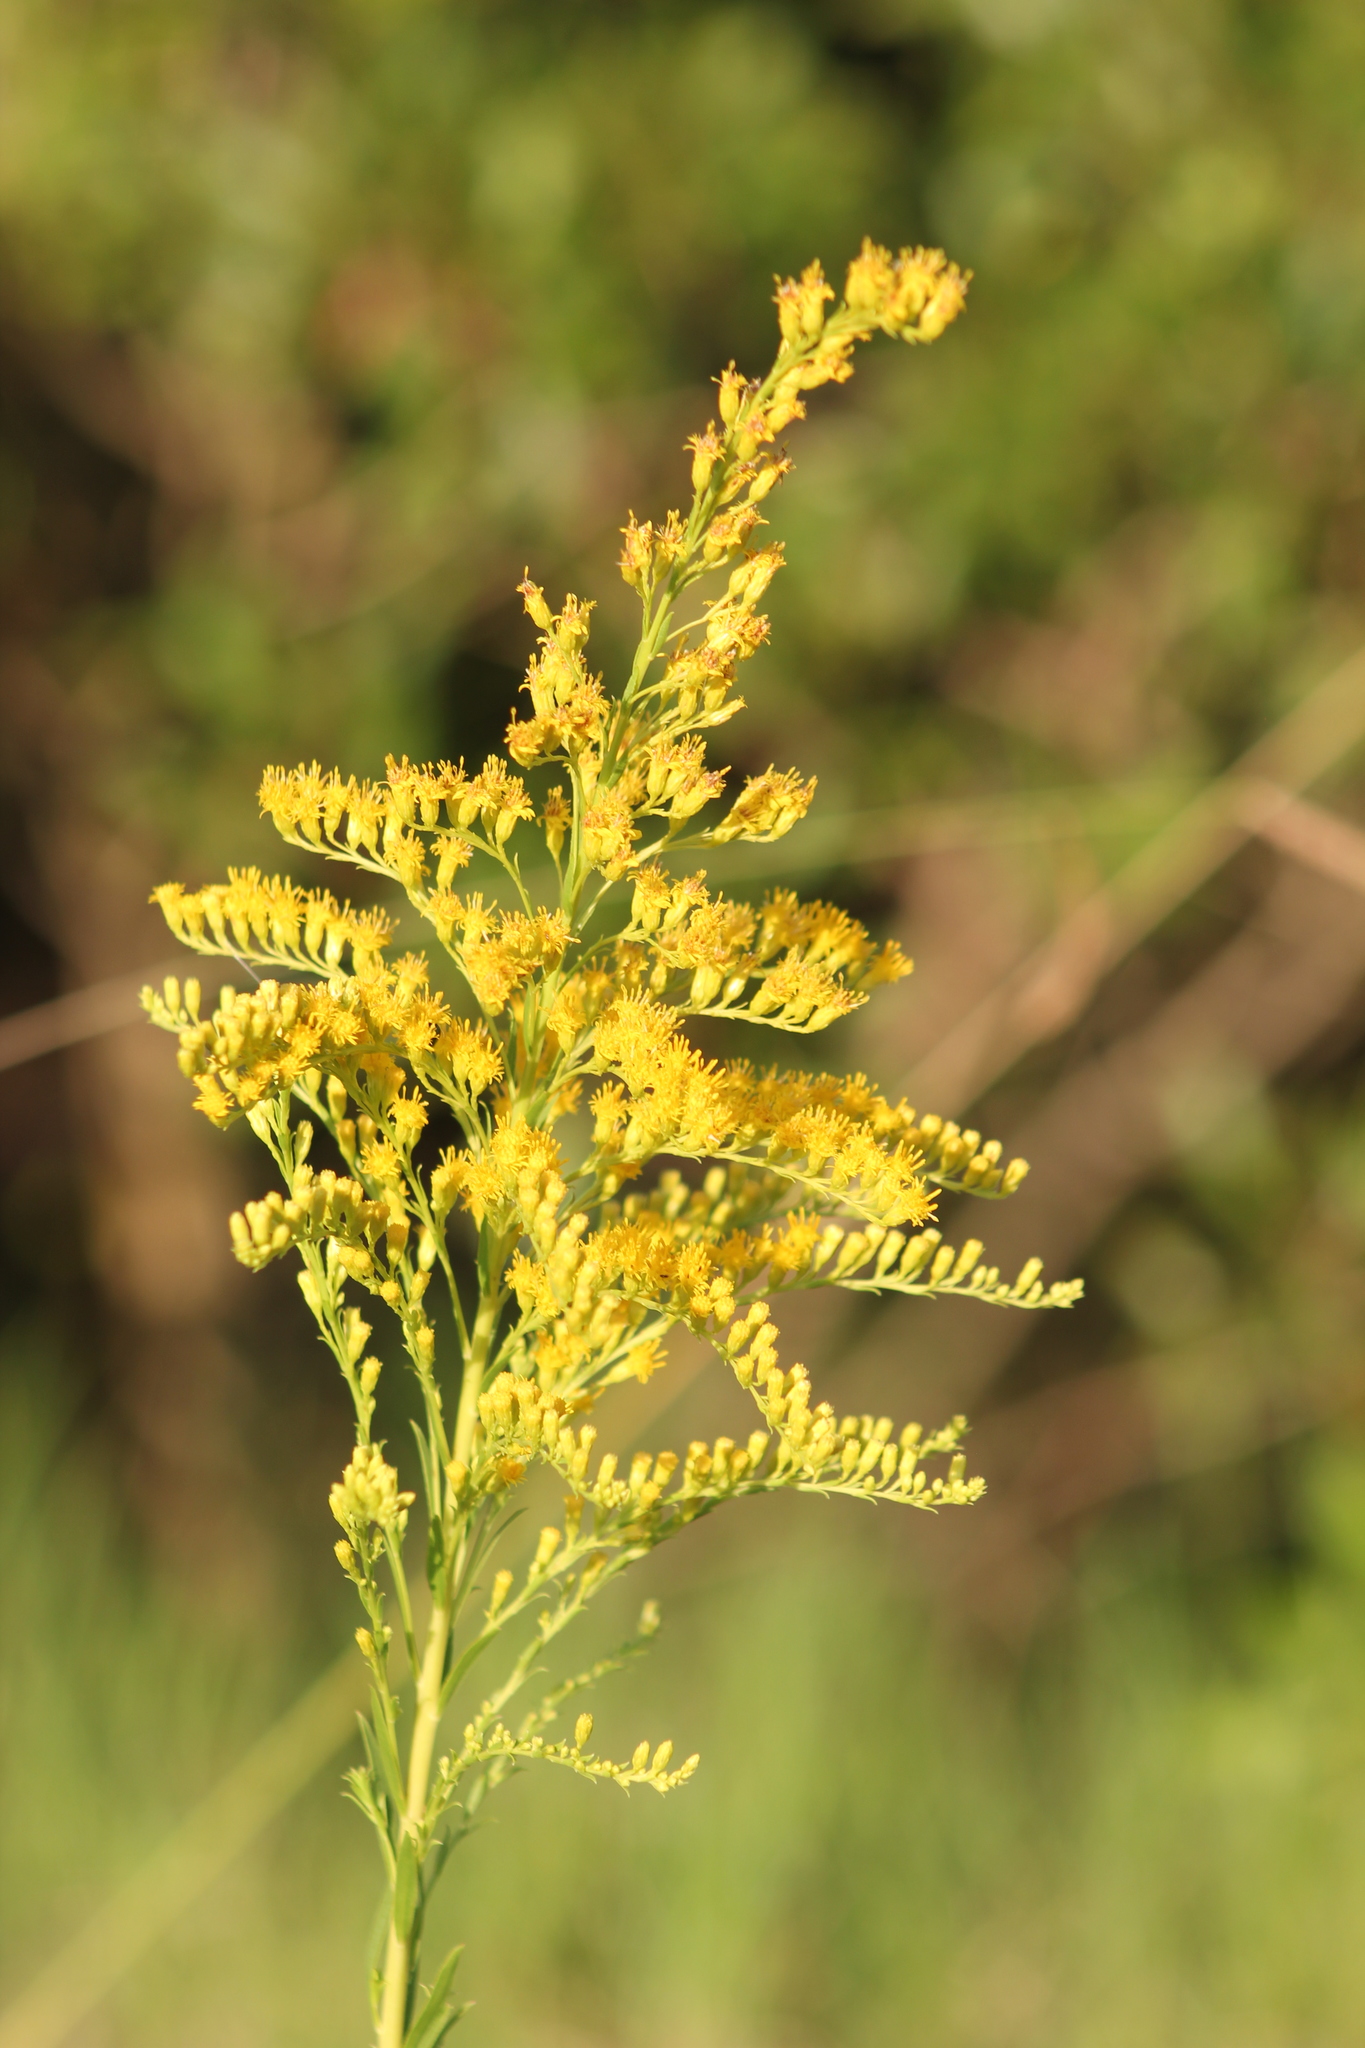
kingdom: Plantae
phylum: Tracheophyta
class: Magnoliopsida
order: Asterales
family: Asteraceae
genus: Solidago
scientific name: Solidago chilensis
